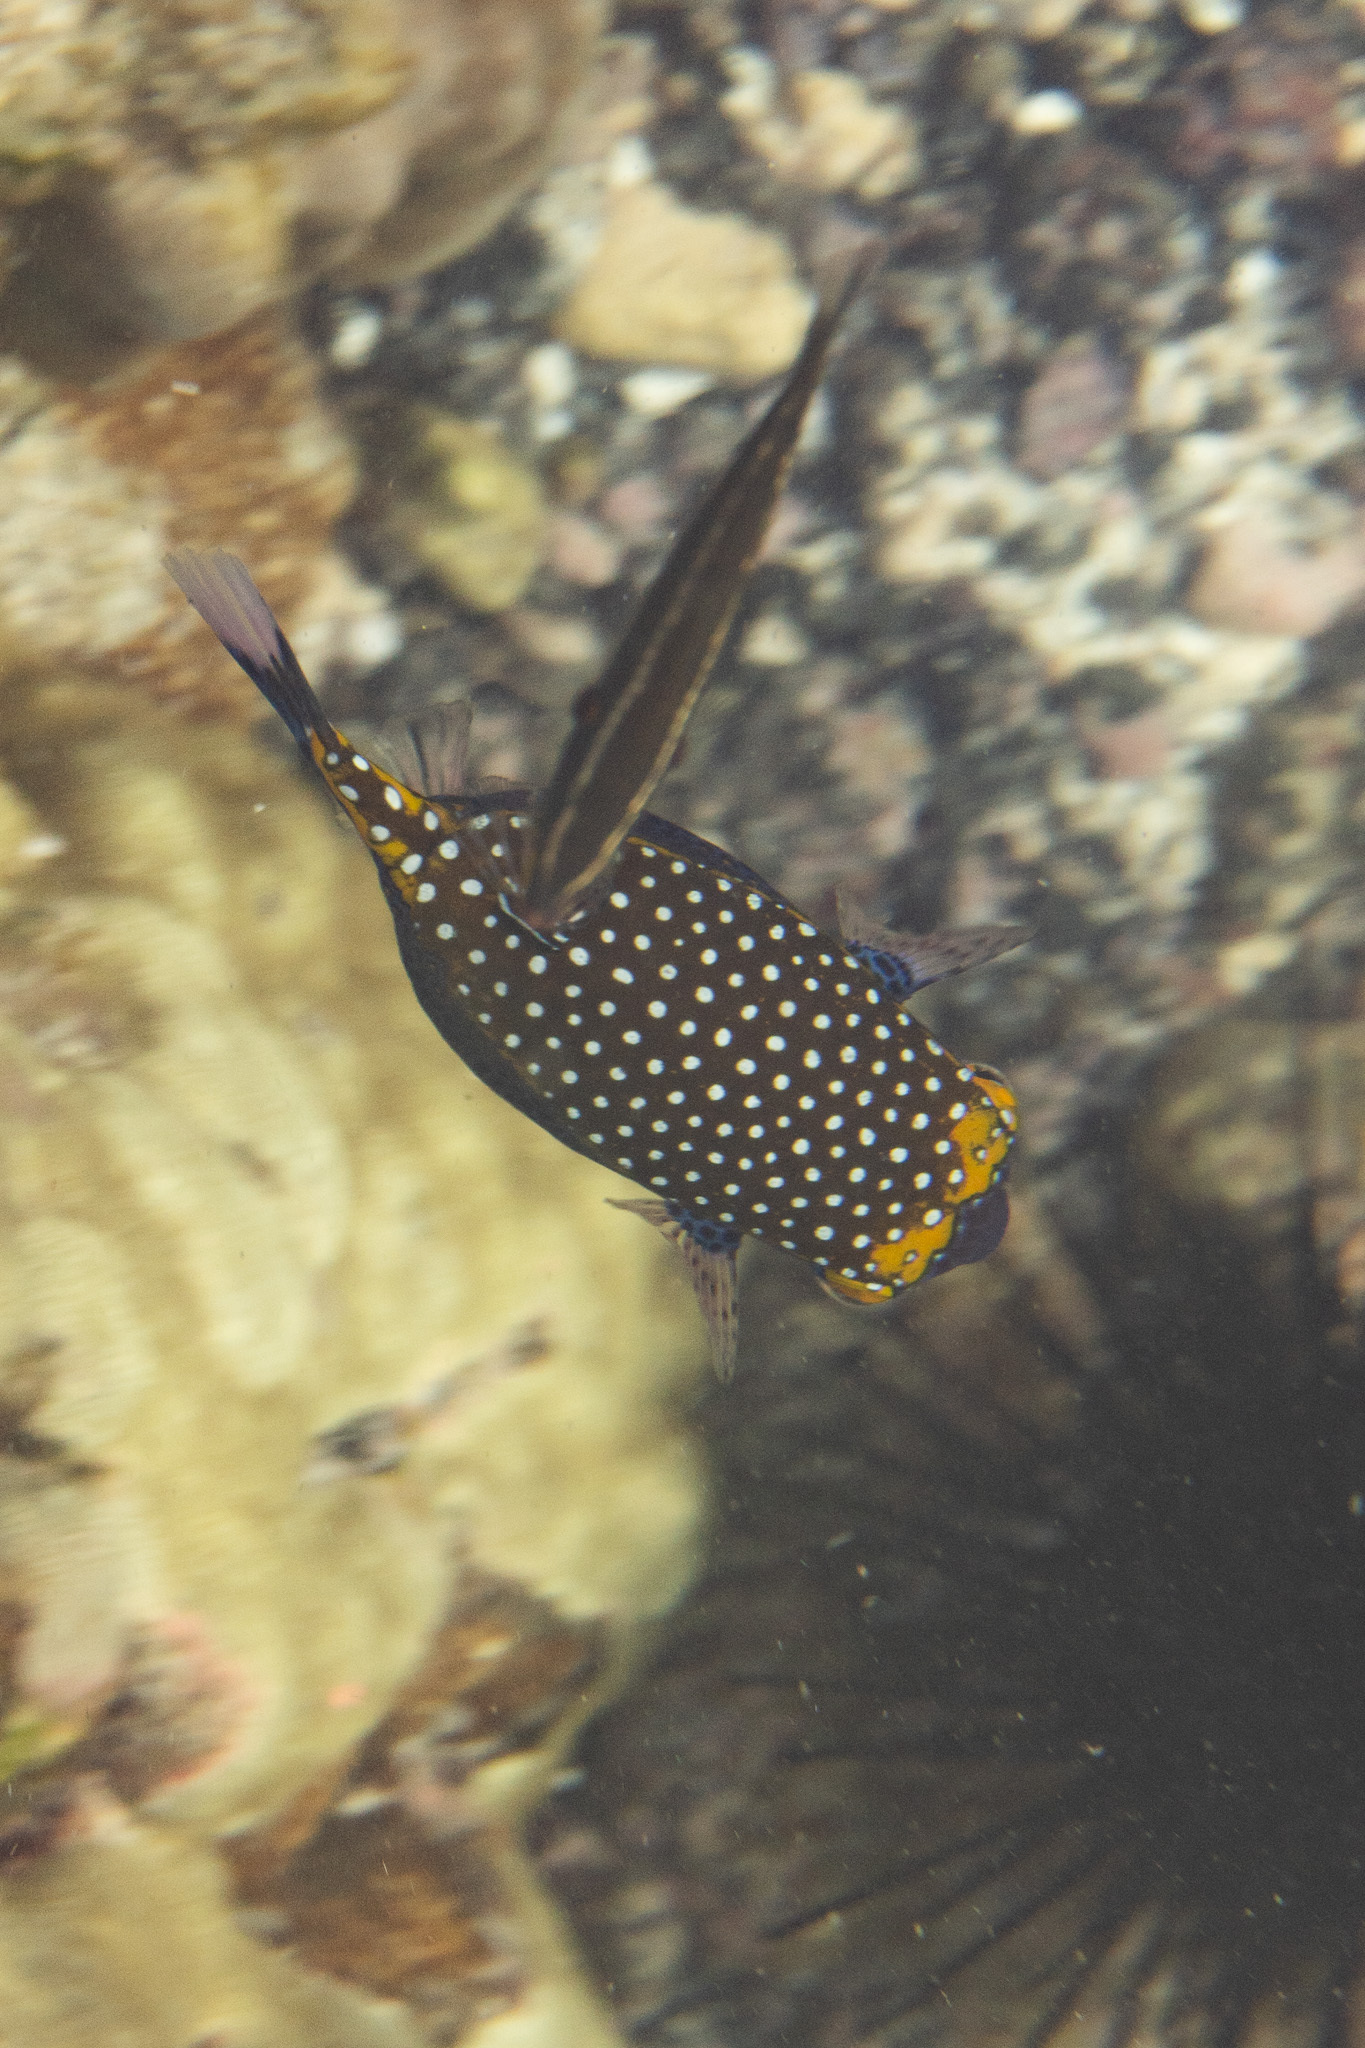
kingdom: Animalia
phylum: Chordata
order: Tetraodontiformes
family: Ostraciidae
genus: Ostracion
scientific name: Ostracion meleagris
